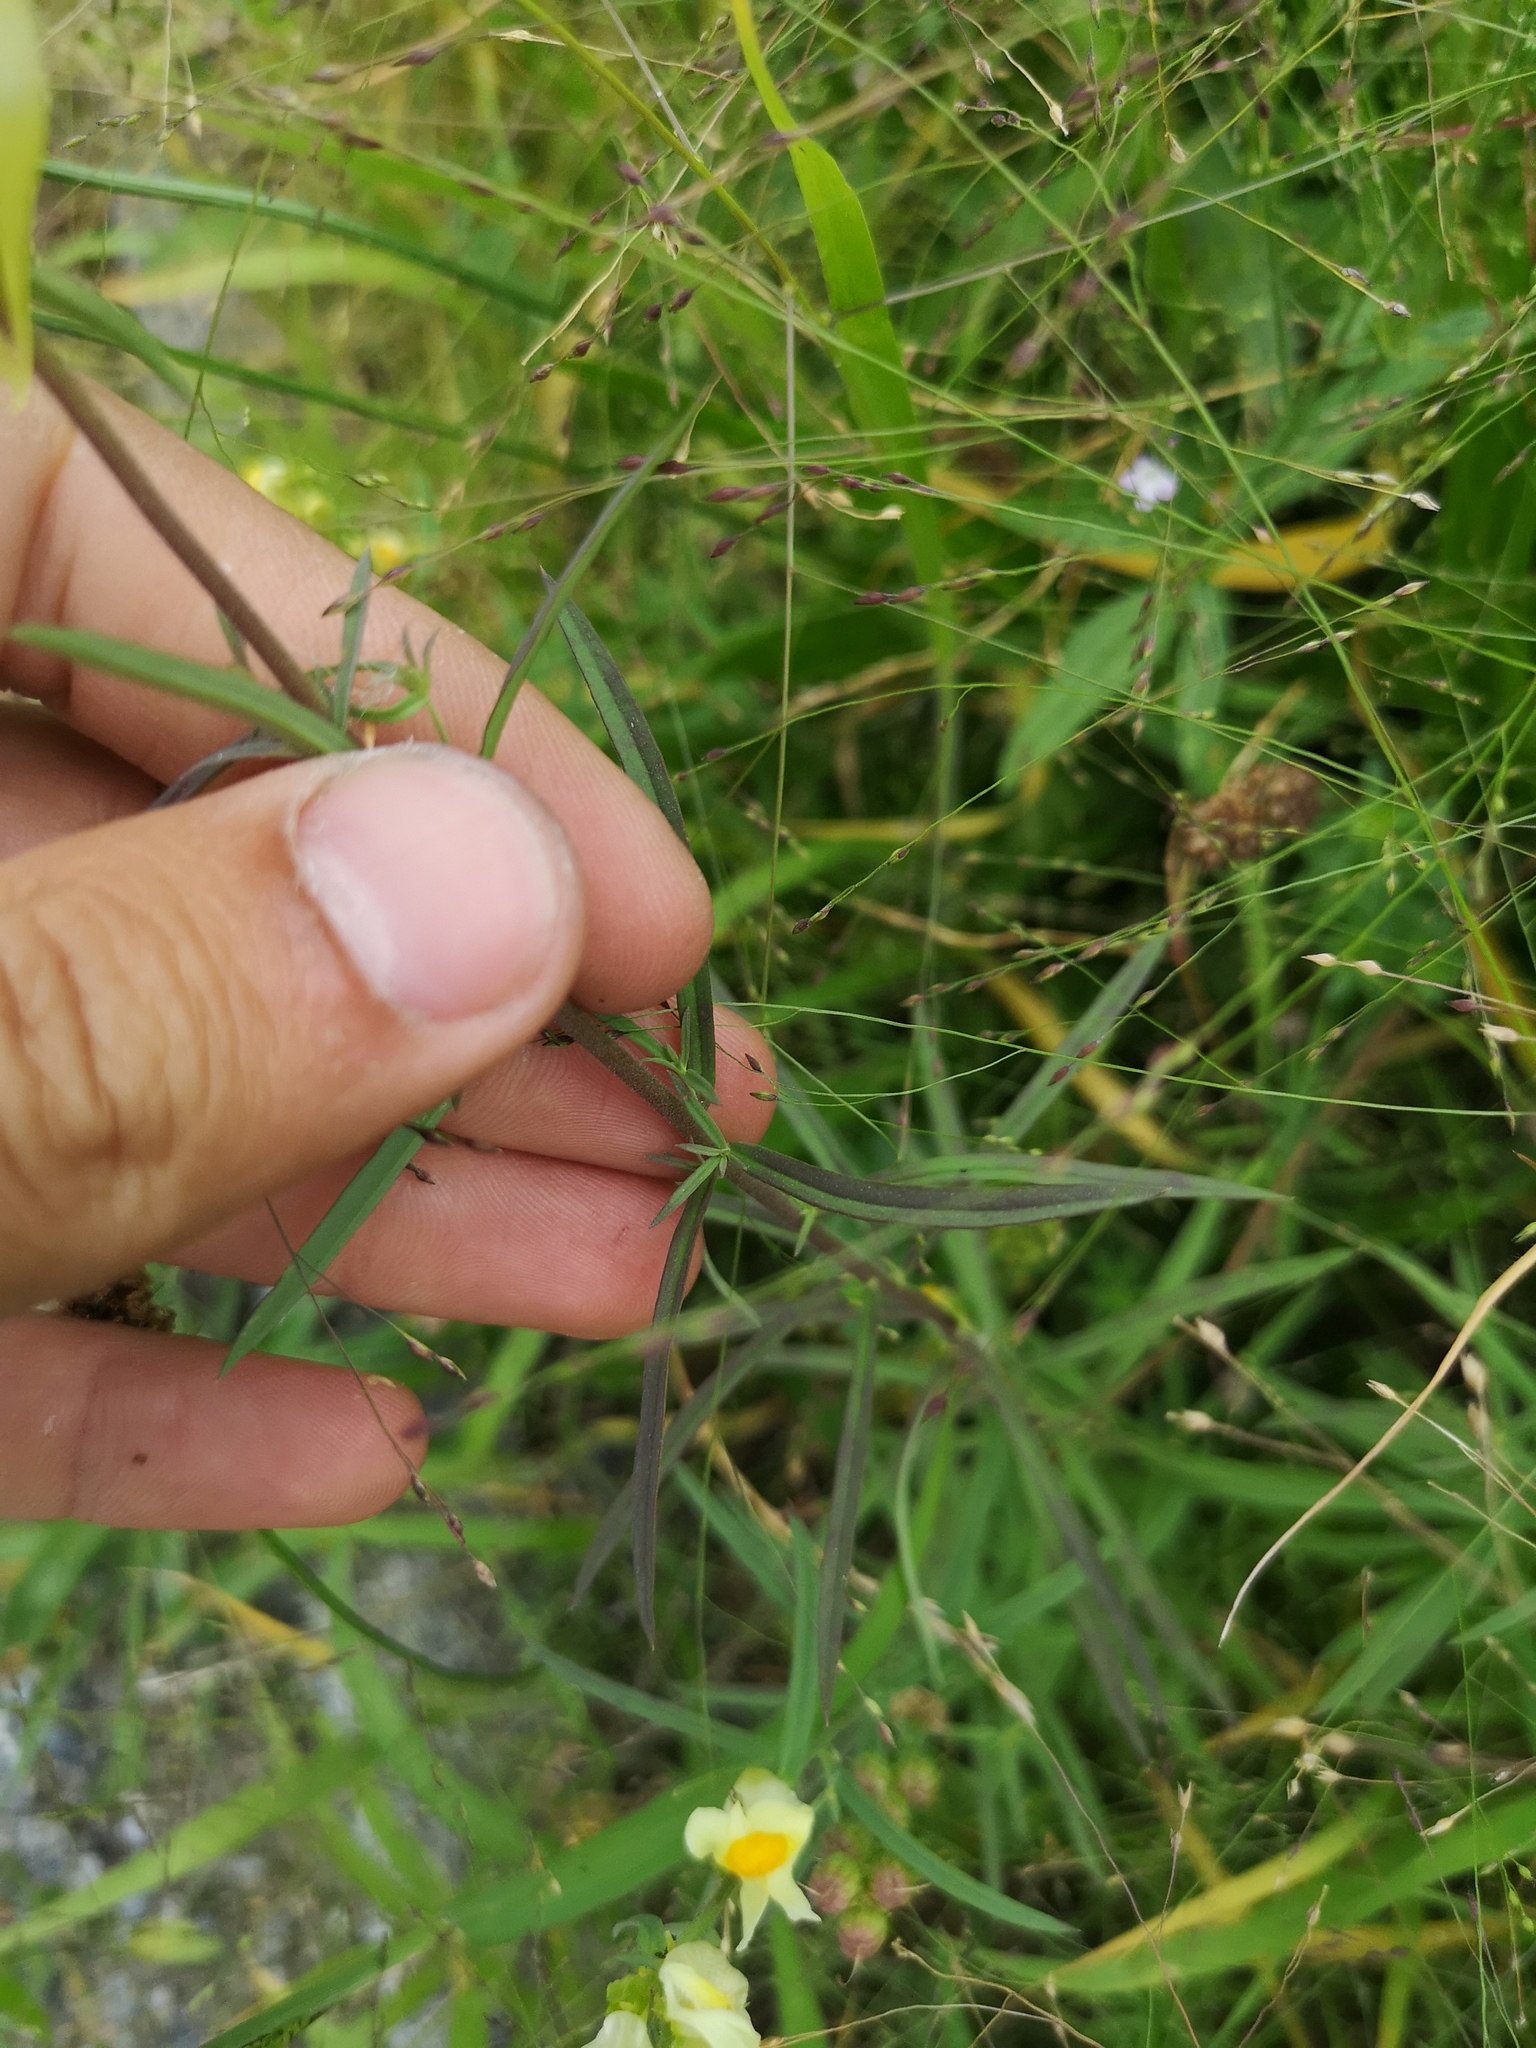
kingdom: Plantae
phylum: Tracheophyta
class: Magnoliopsida
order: Lamiales
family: Plantaginaceae
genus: Linaria
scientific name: Linaria vulgaris
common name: Butter and eggs
